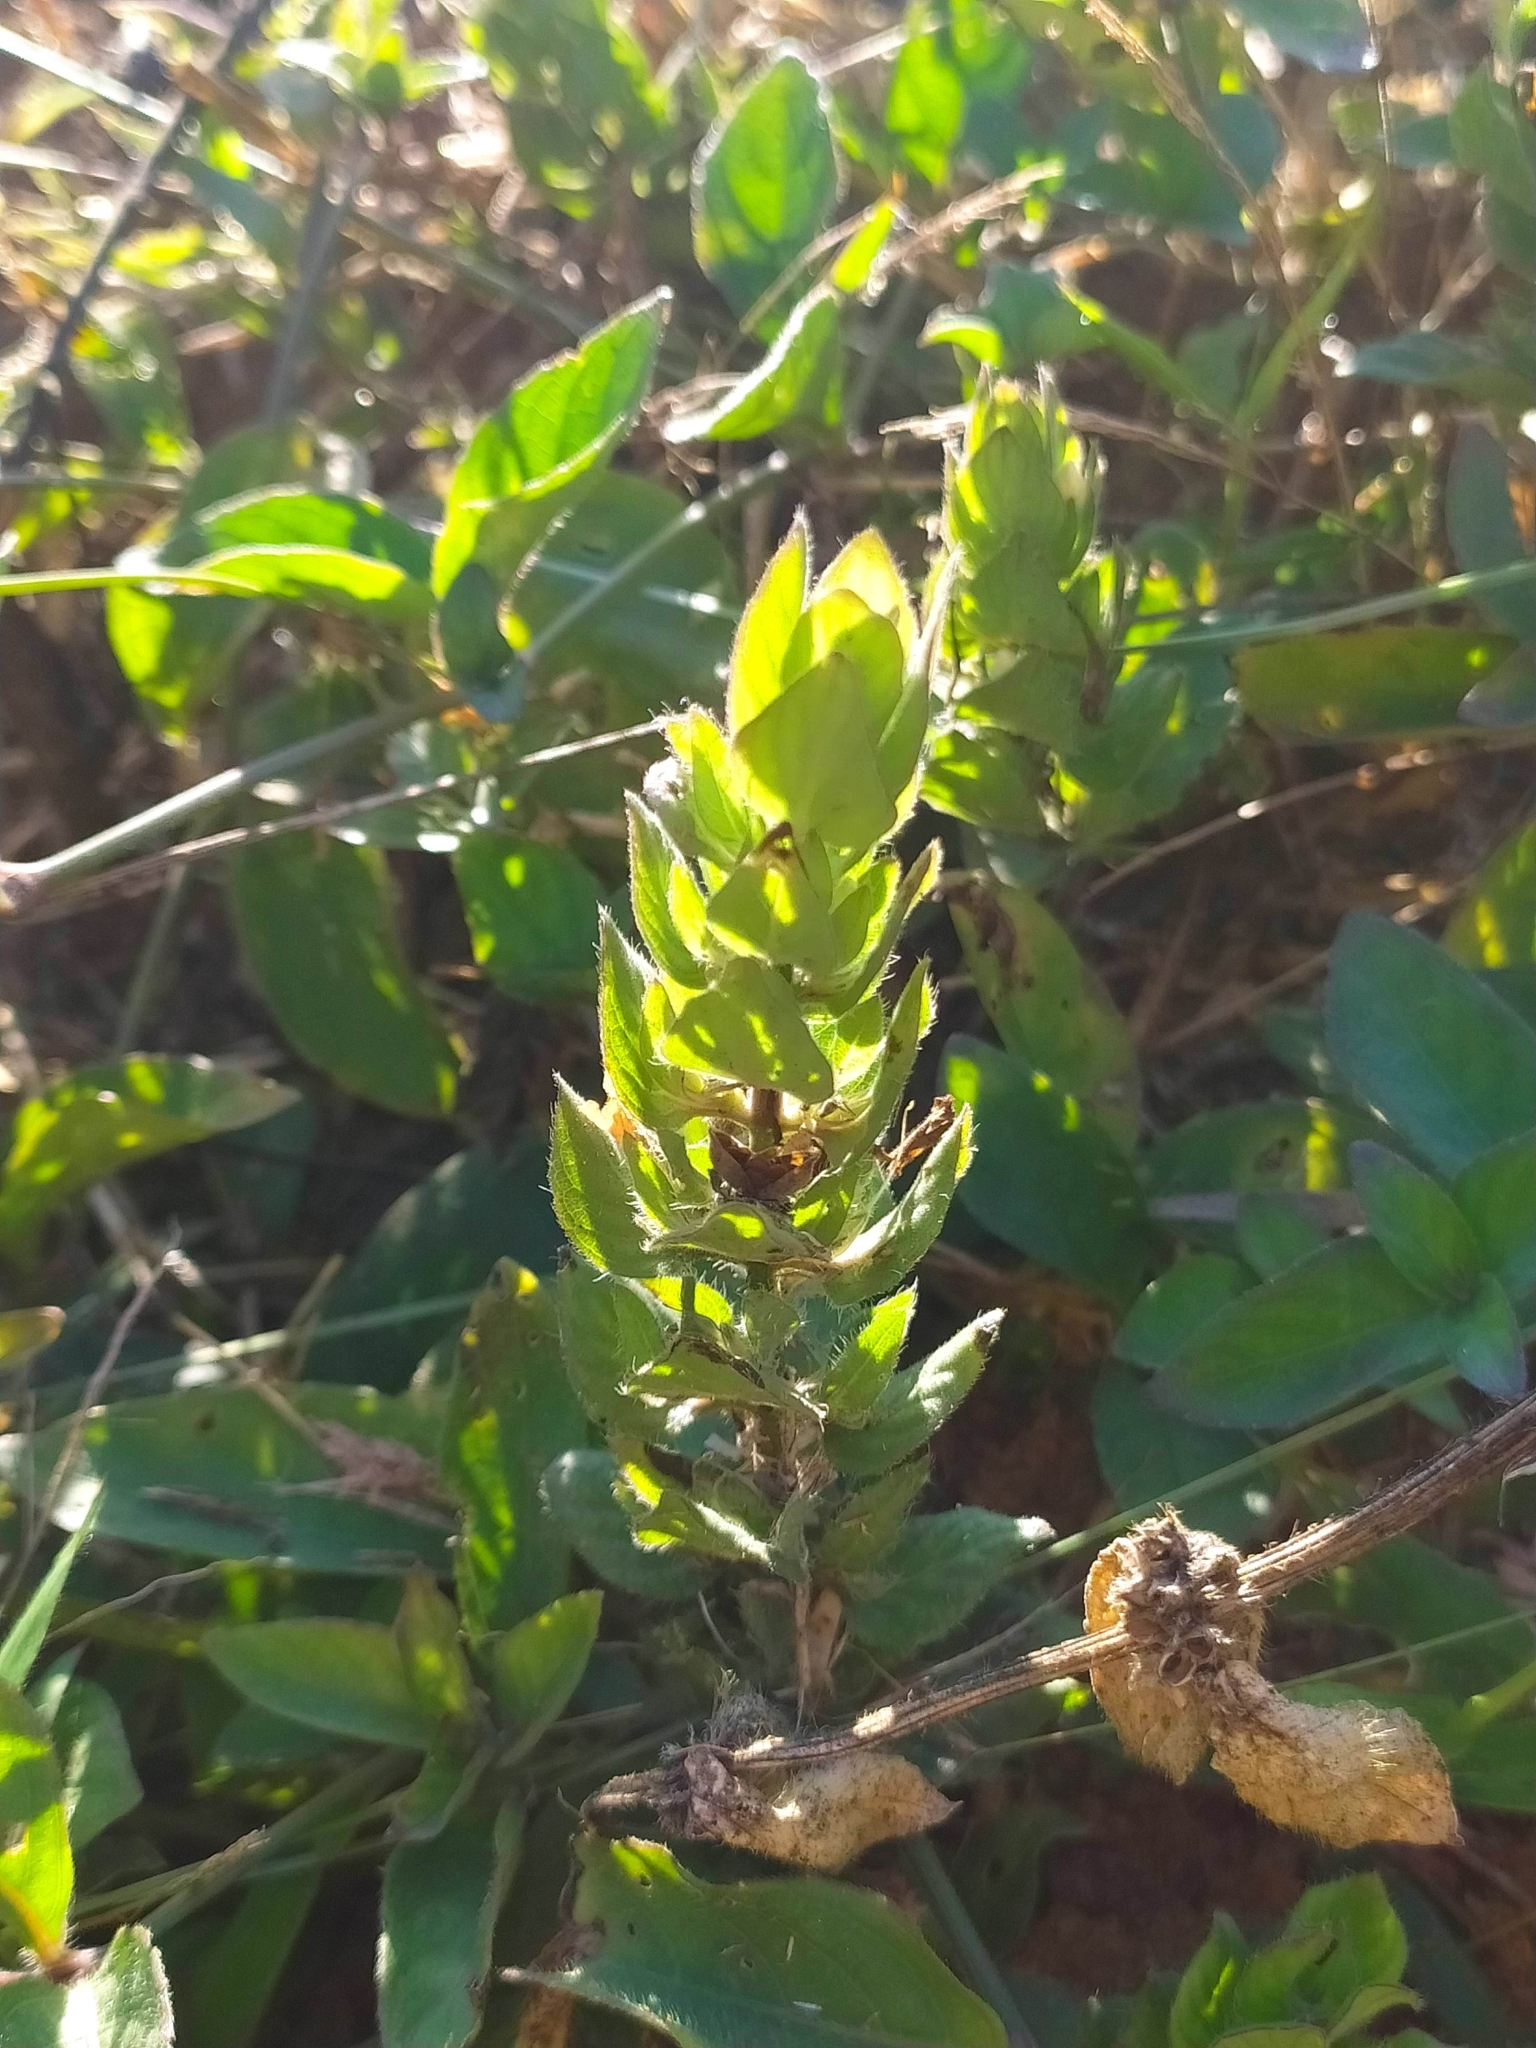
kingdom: Plantae
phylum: Tracheophyta
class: Magnoliopsida
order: Lamiales
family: Acanthaceae
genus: Ruellia
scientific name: Ruellia blechum
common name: Browne's blechum
